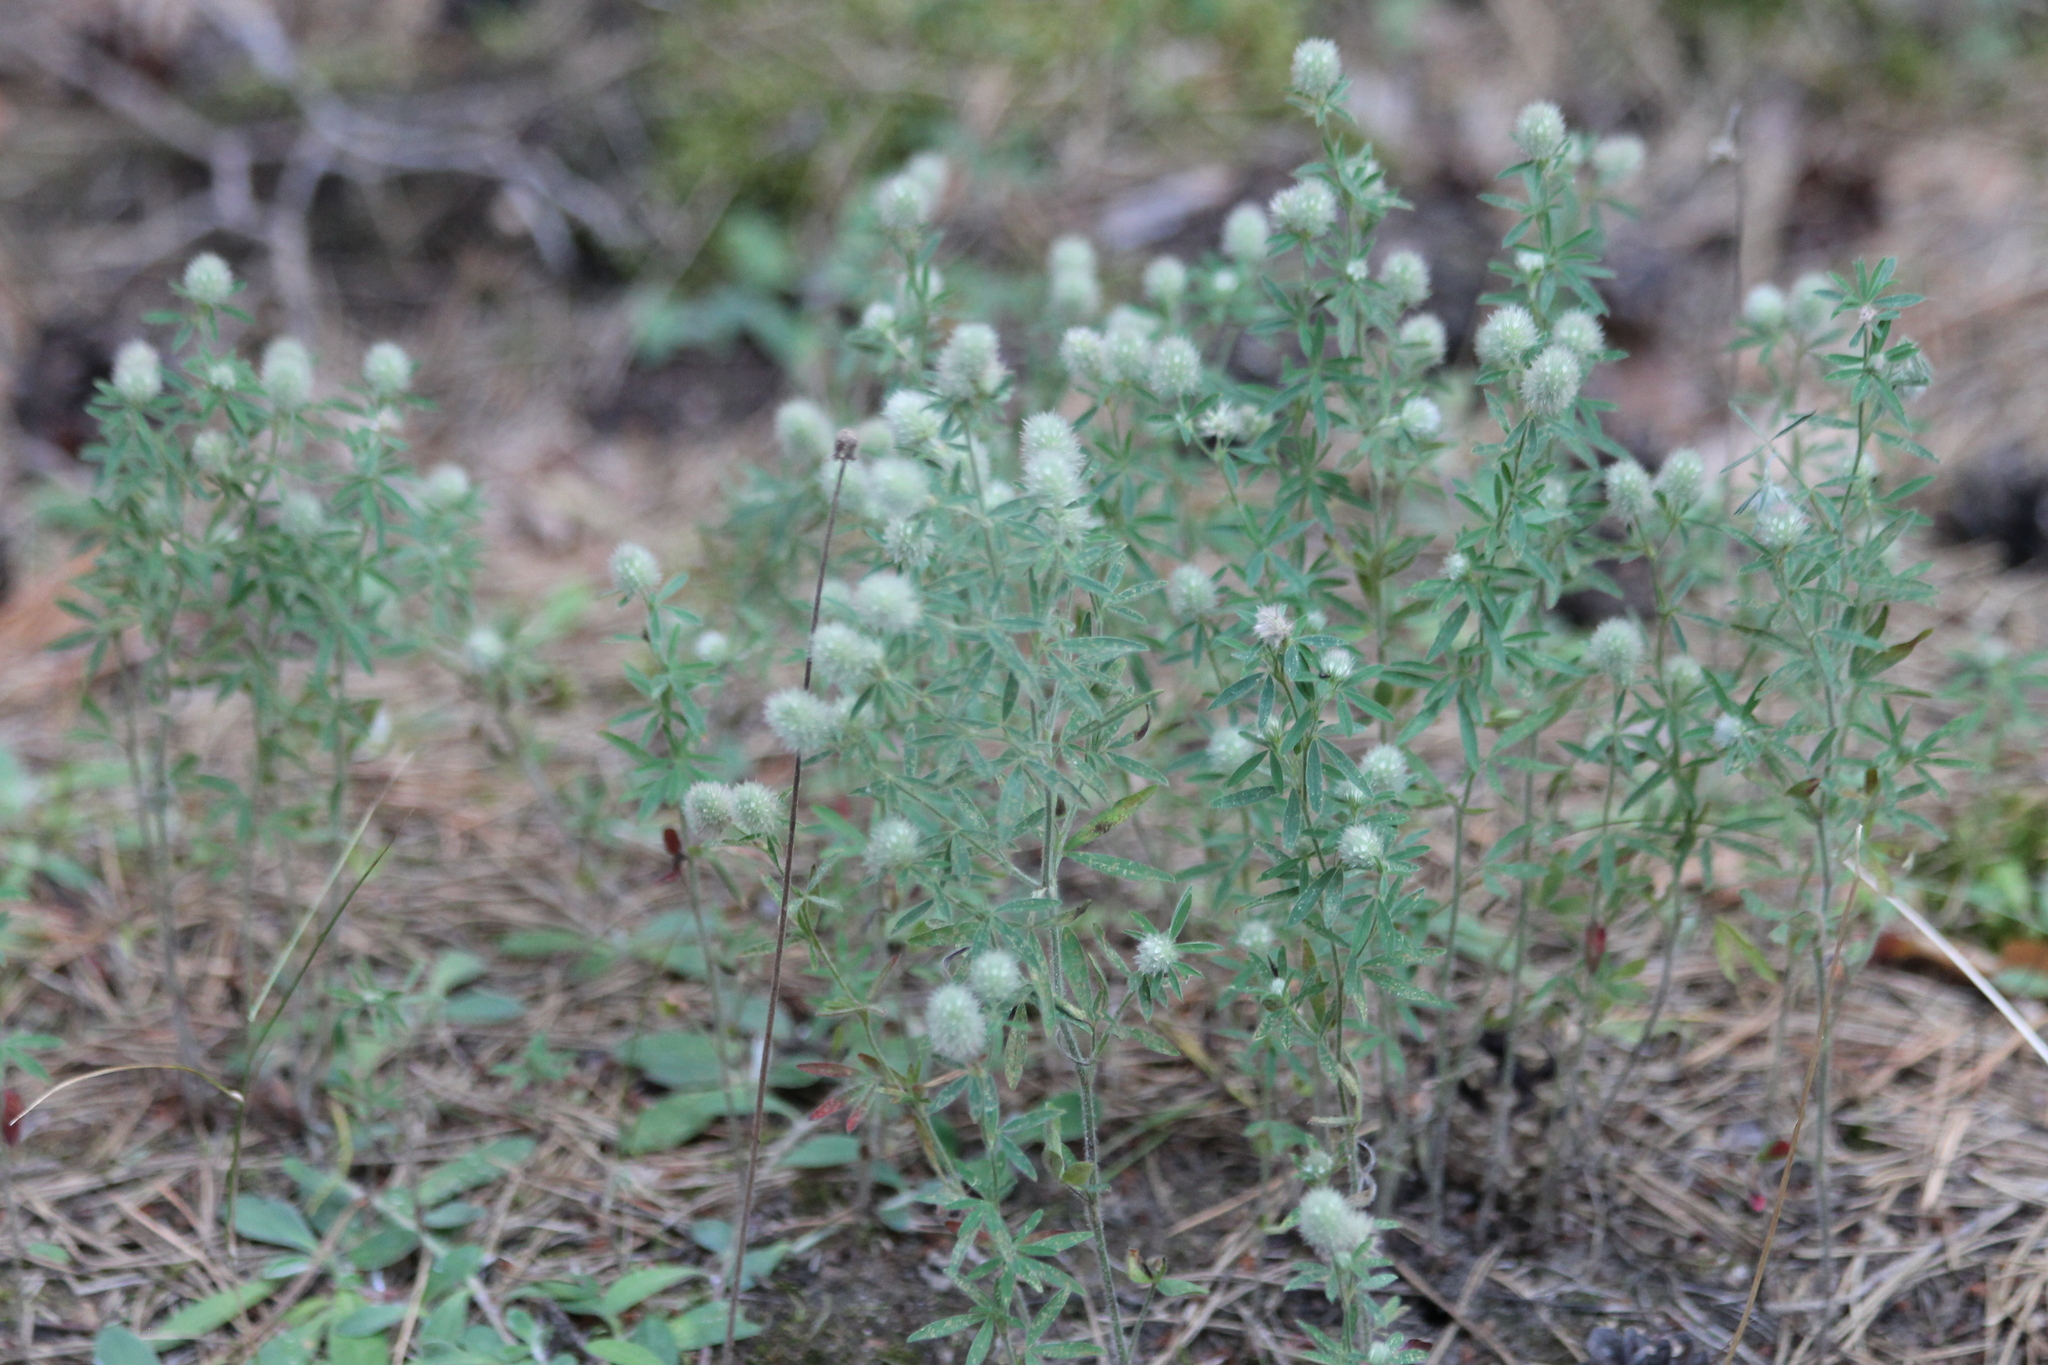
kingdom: Plantae
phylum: Tracheophyta
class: Magnoliopsida
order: Fabales
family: Fabaceae
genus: Trifolium
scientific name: Trifolium arvense
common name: Hare's-foot clover
